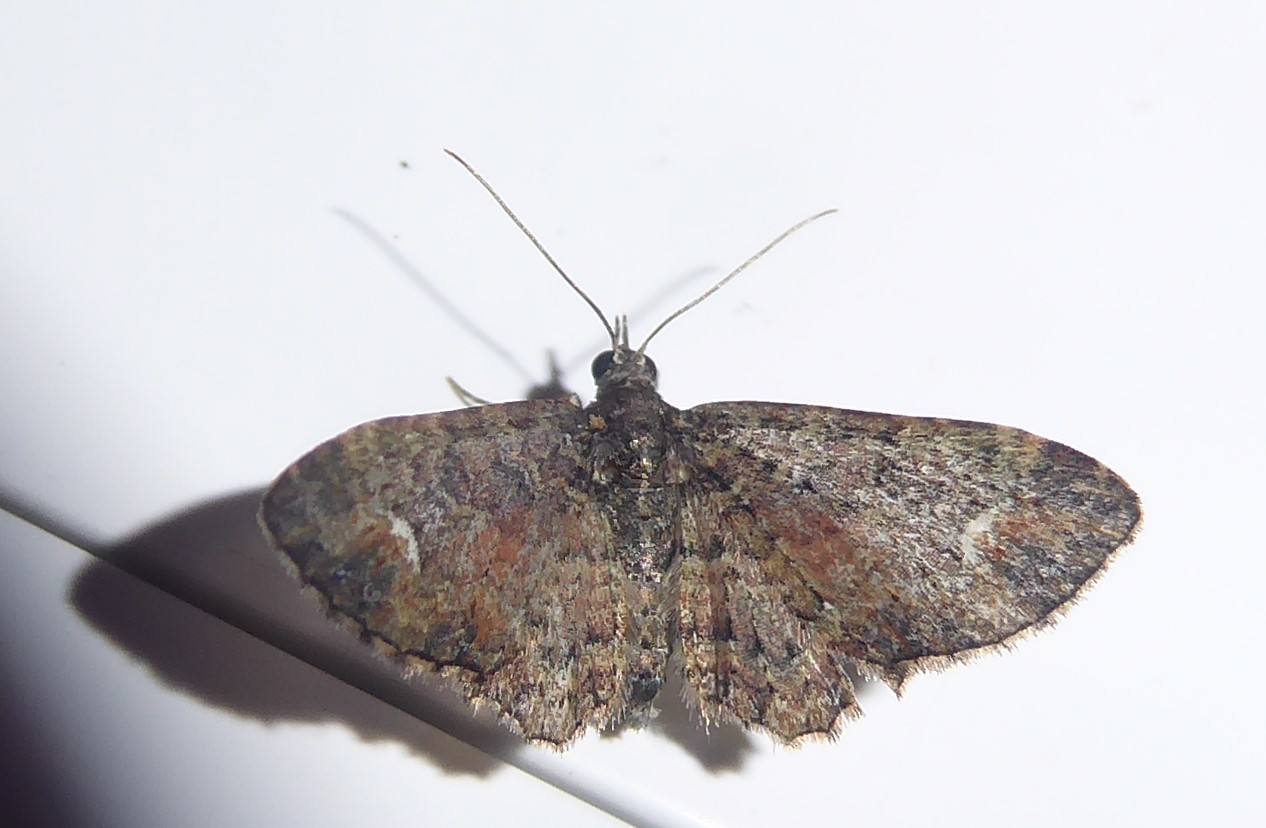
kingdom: Animalia
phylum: Arthropoda
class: Insecta
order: Lepidoptera
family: Geometridae
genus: Pasiphilodes
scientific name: Pasiphilodes testulata
